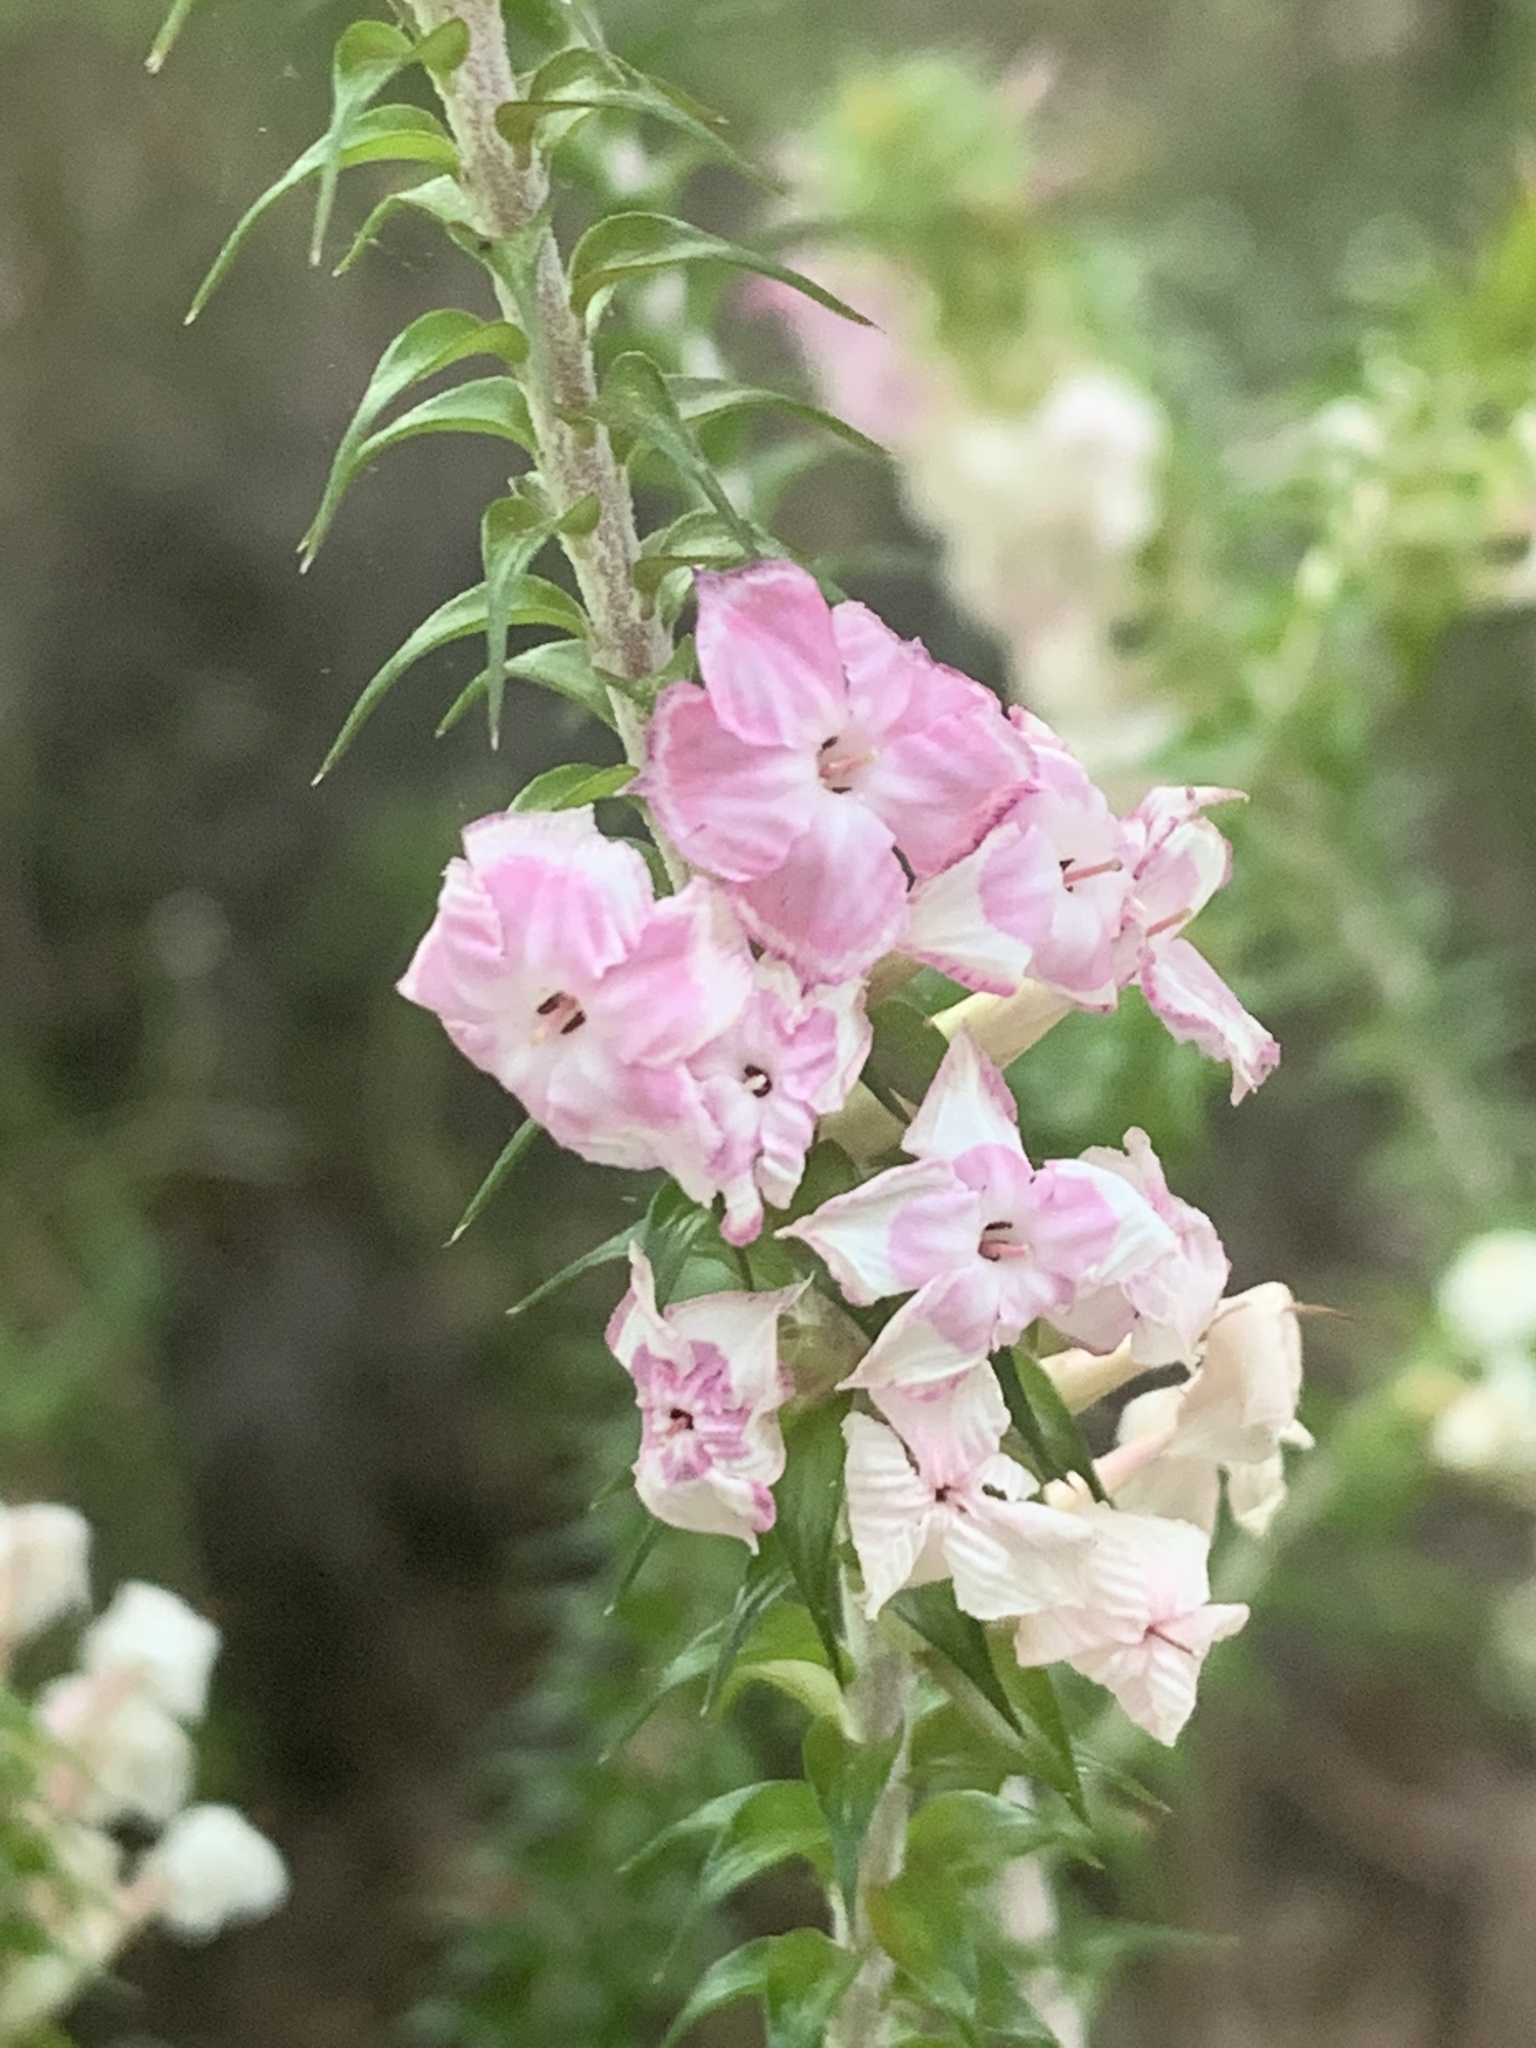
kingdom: Plantae
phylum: Tracheophyta
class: Magnoliopsida
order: Ericales
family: Ericaceae
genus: Woollsia
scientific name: Woollsia pungens
